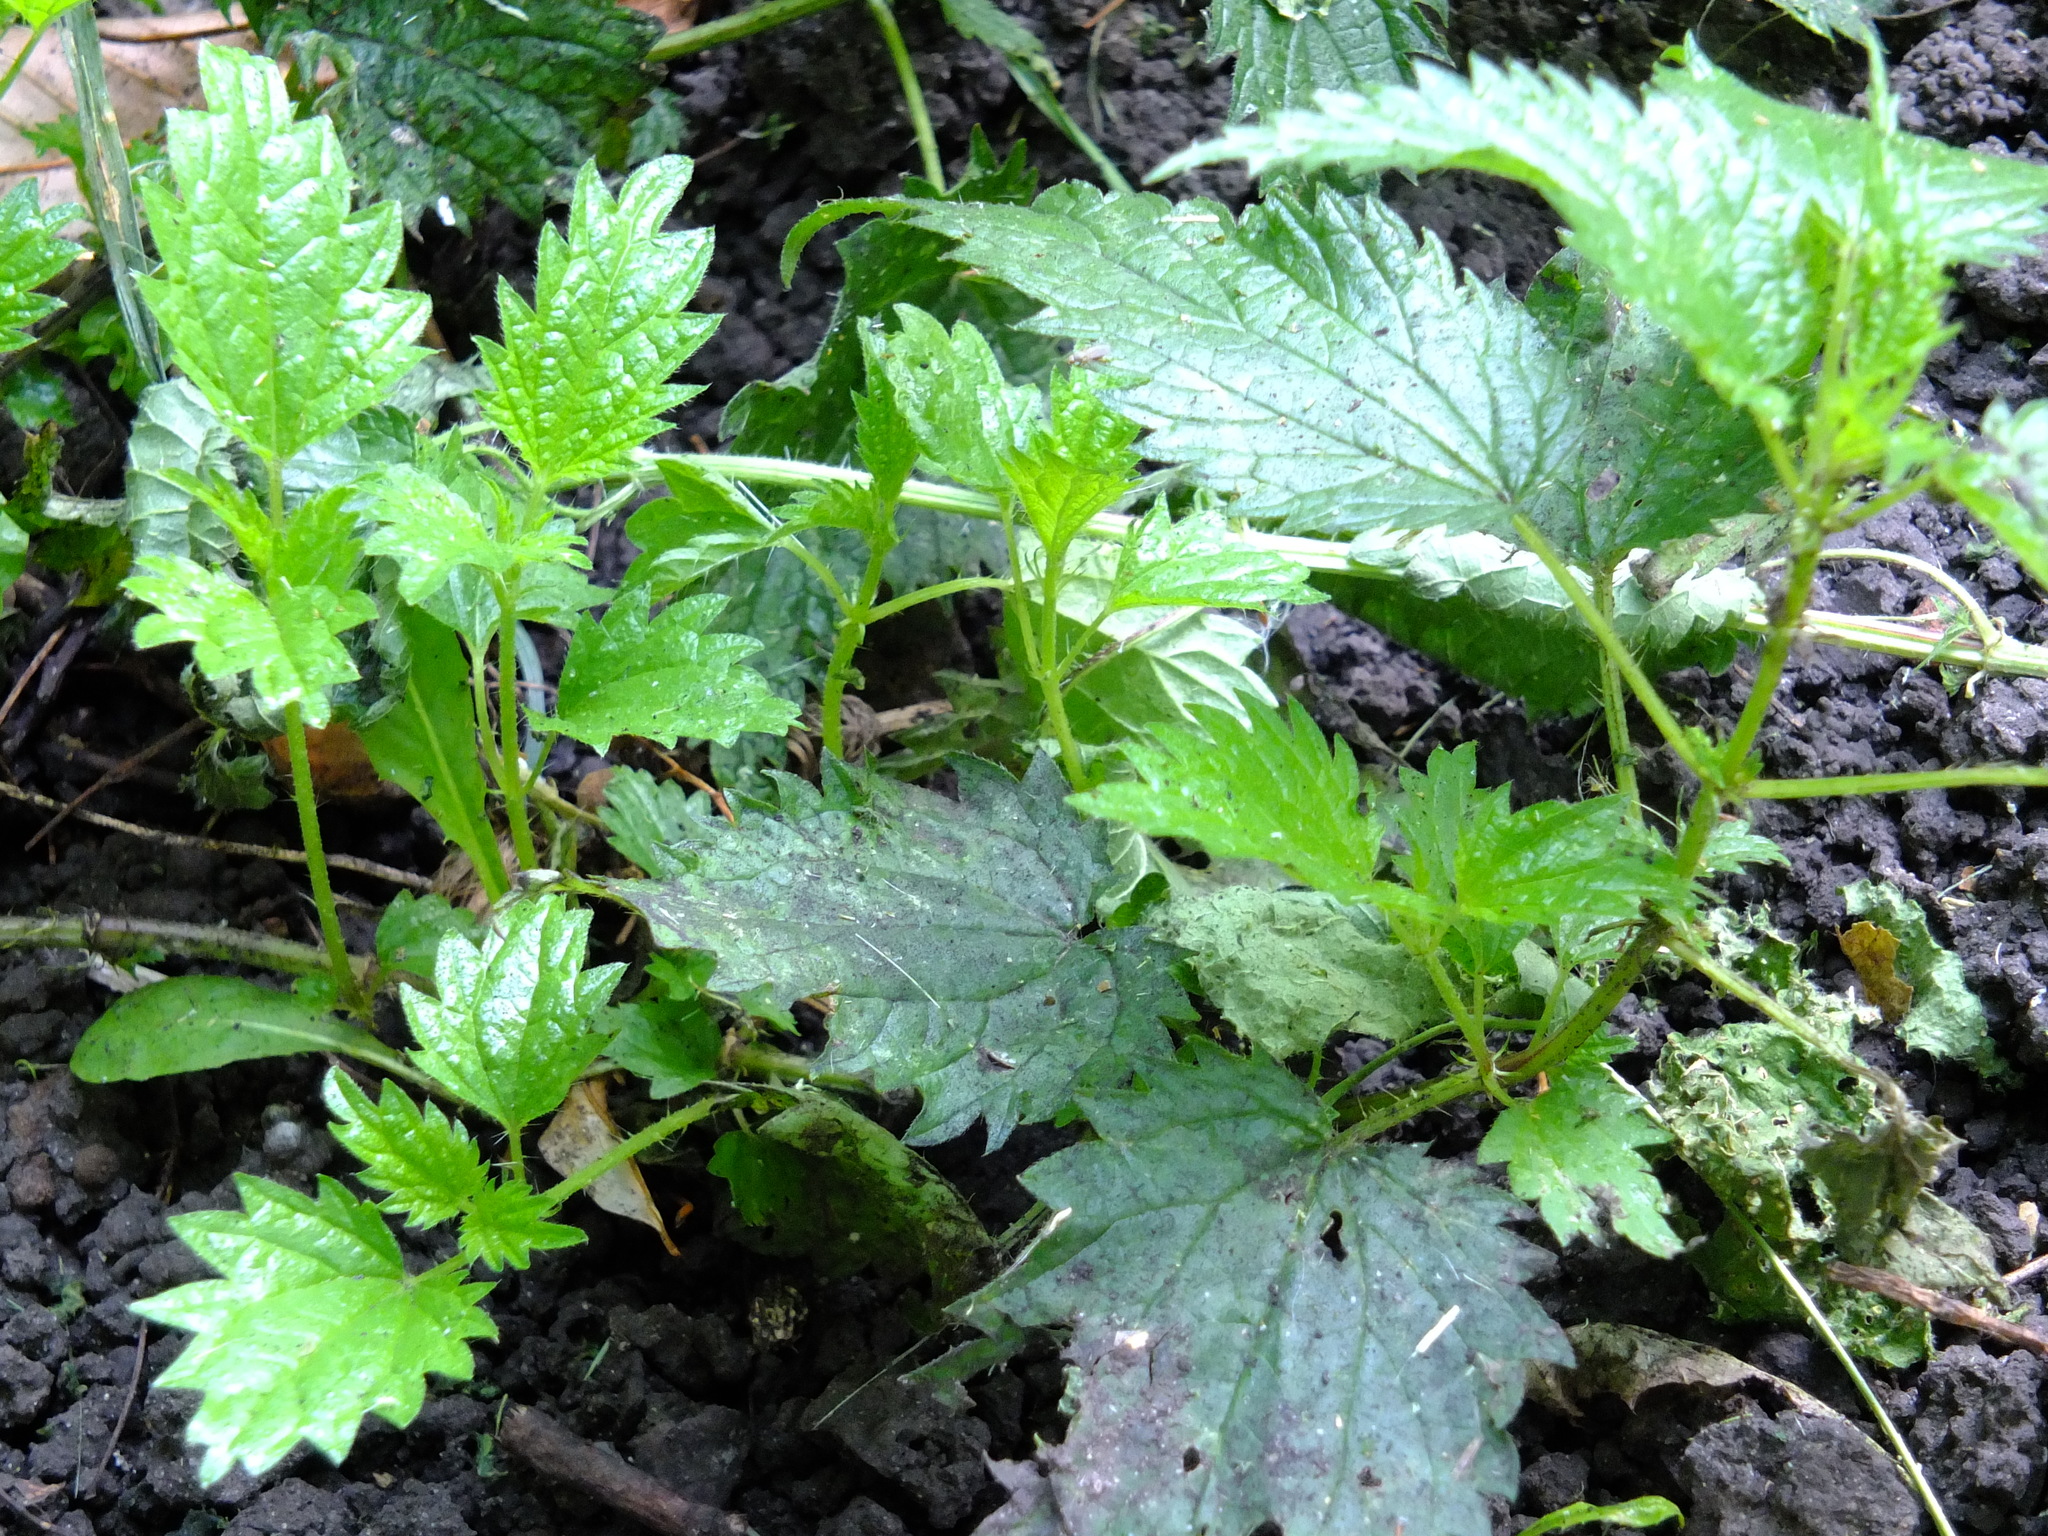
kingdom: Plantae
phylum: Tracheophyta
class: Magnoliopsida
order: Rosales
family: Urticaceae
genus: Urtica
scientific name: Urtica dioica
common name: Common nettle
